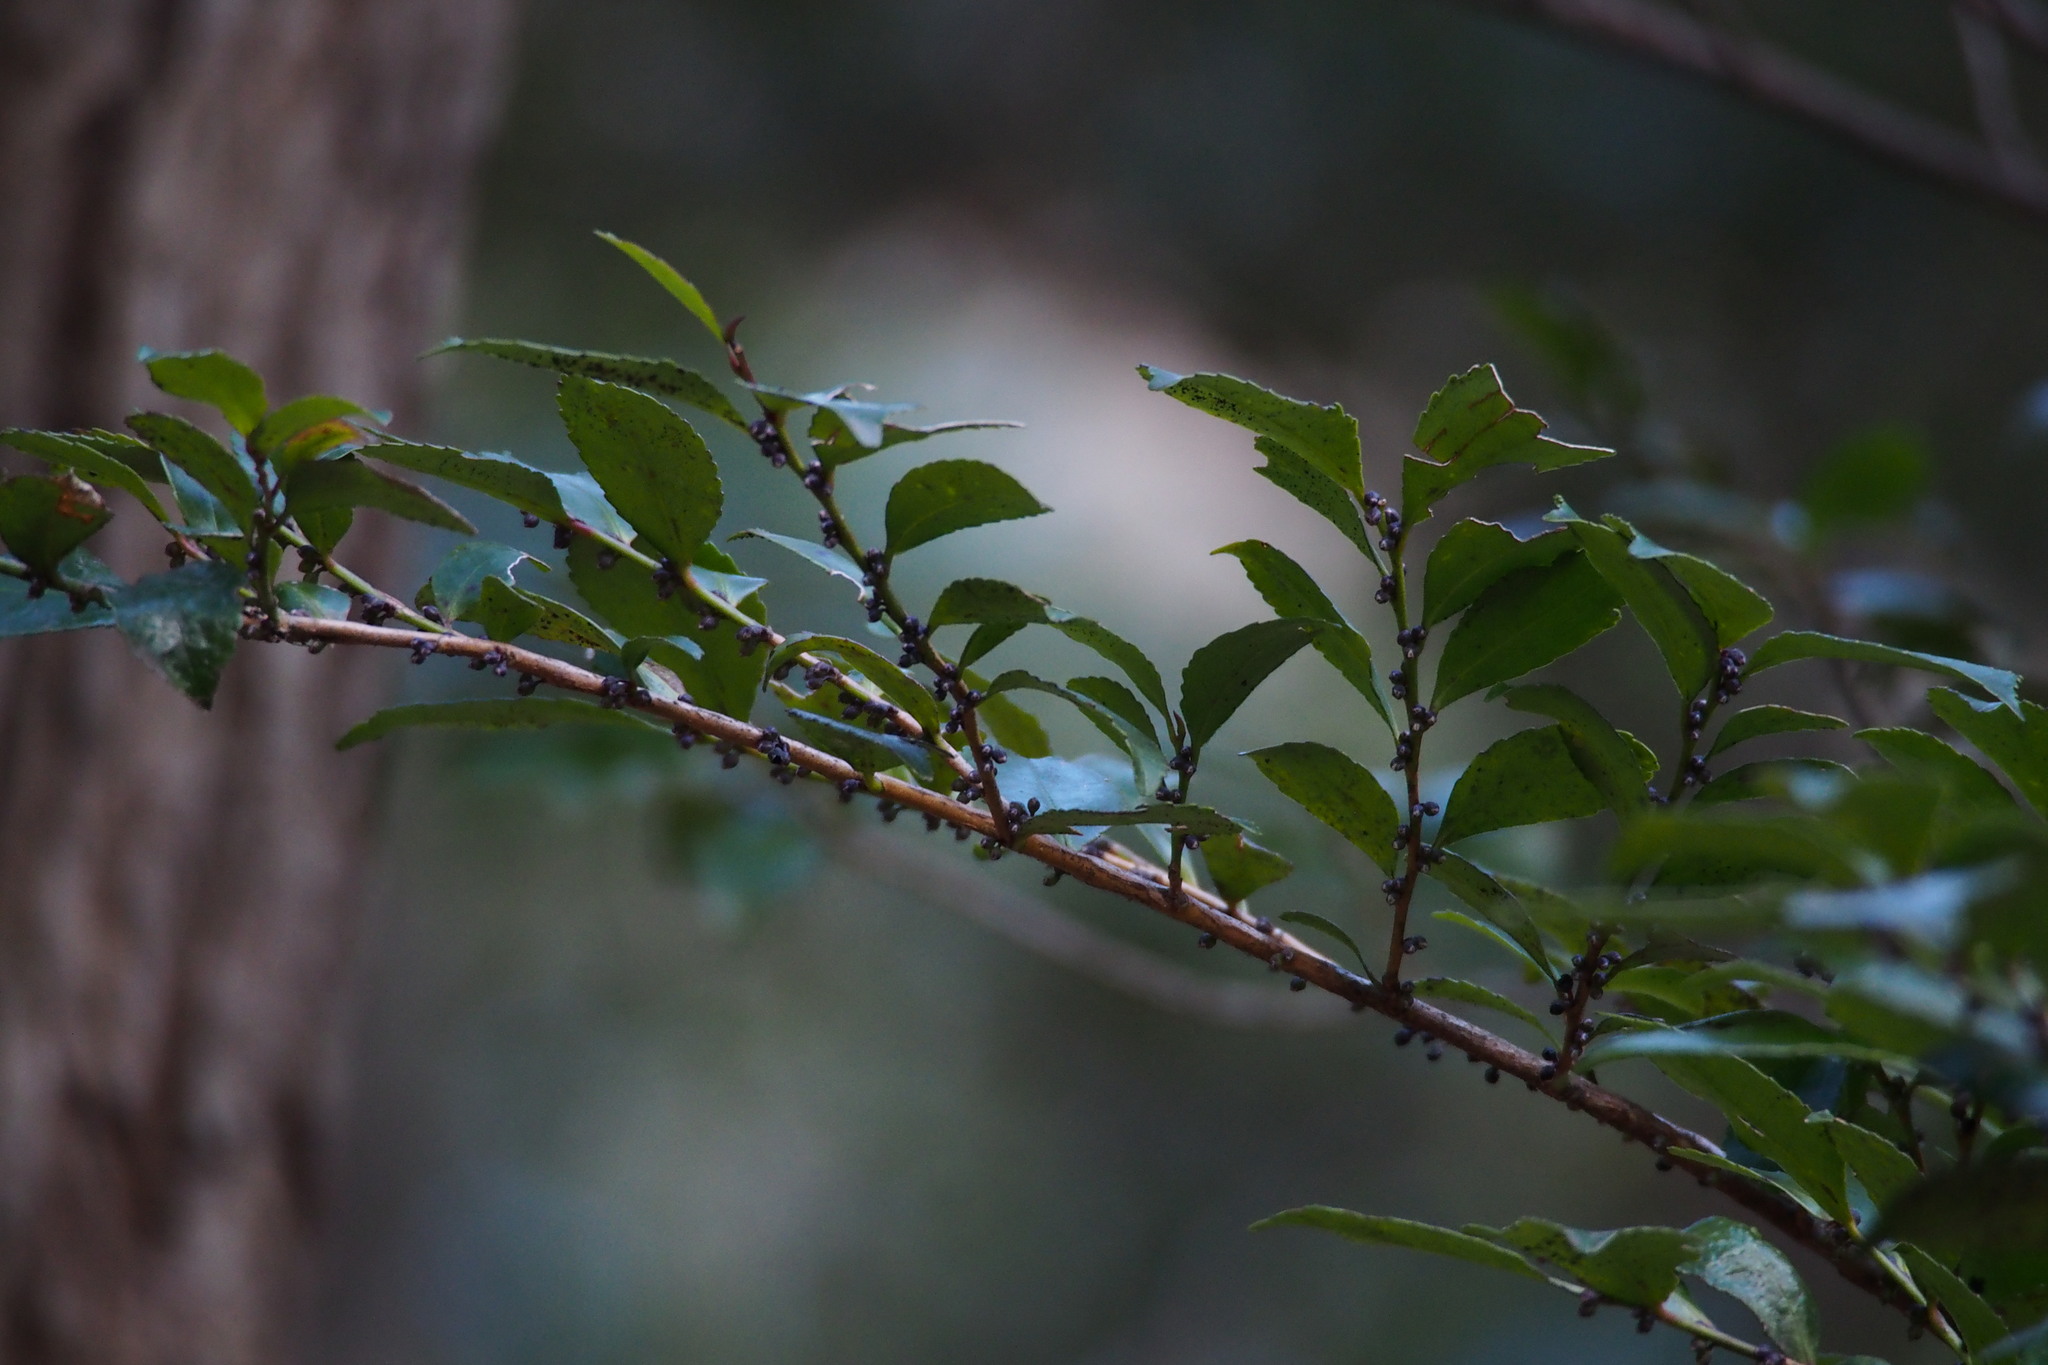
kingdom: Plantae
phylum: Tracheophyta
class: Magnoliopsida
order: Ericales
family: Pentaphylacaceae
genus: Eurya
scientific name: Eurya japonica
